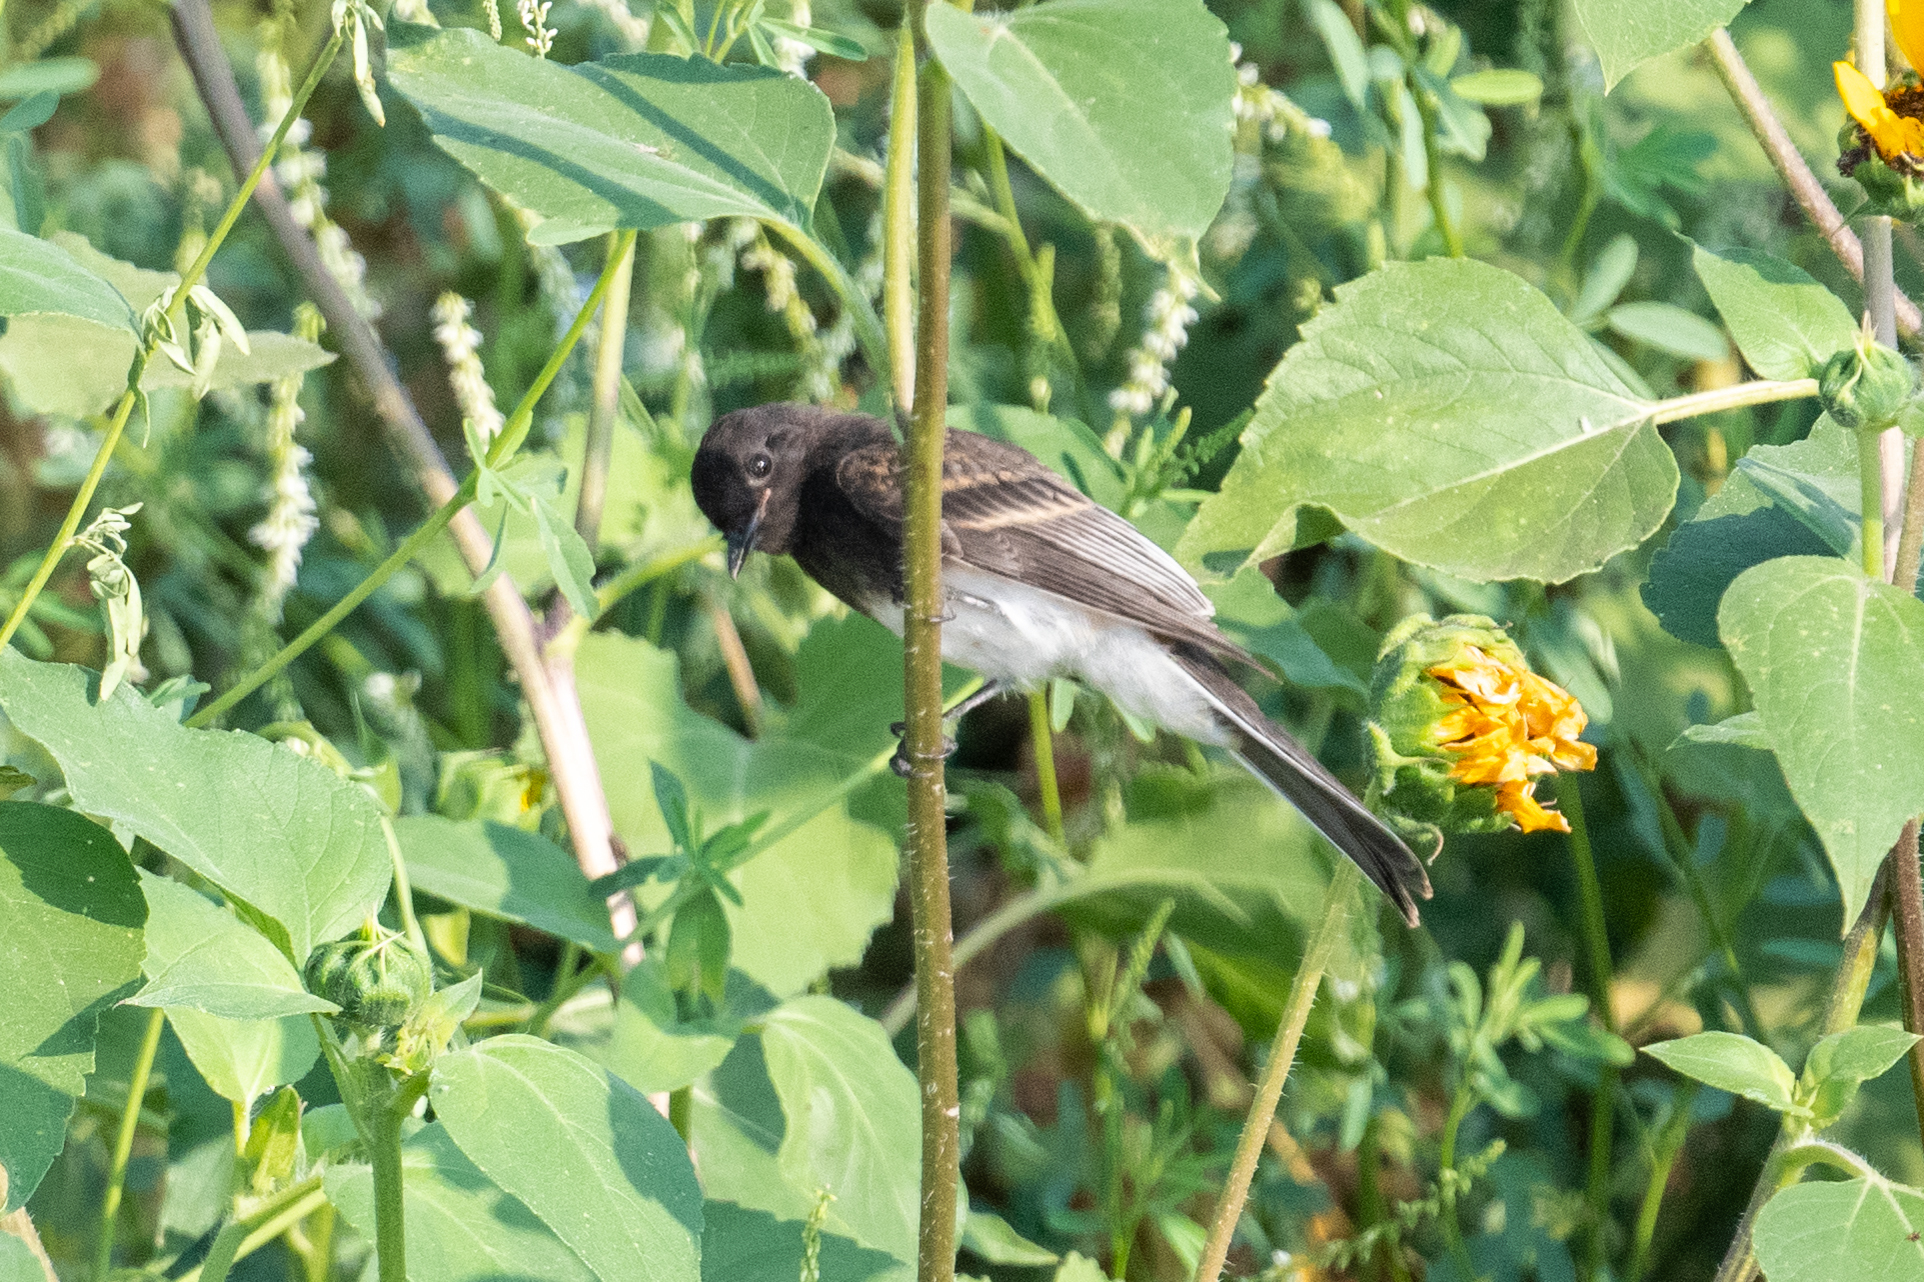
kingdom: Animalia
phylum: Chordata
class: Aves
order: Passeriformes
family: Tyrannidae
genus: Sayornis
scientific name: Sayornis nigricans
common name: Black phoebe
